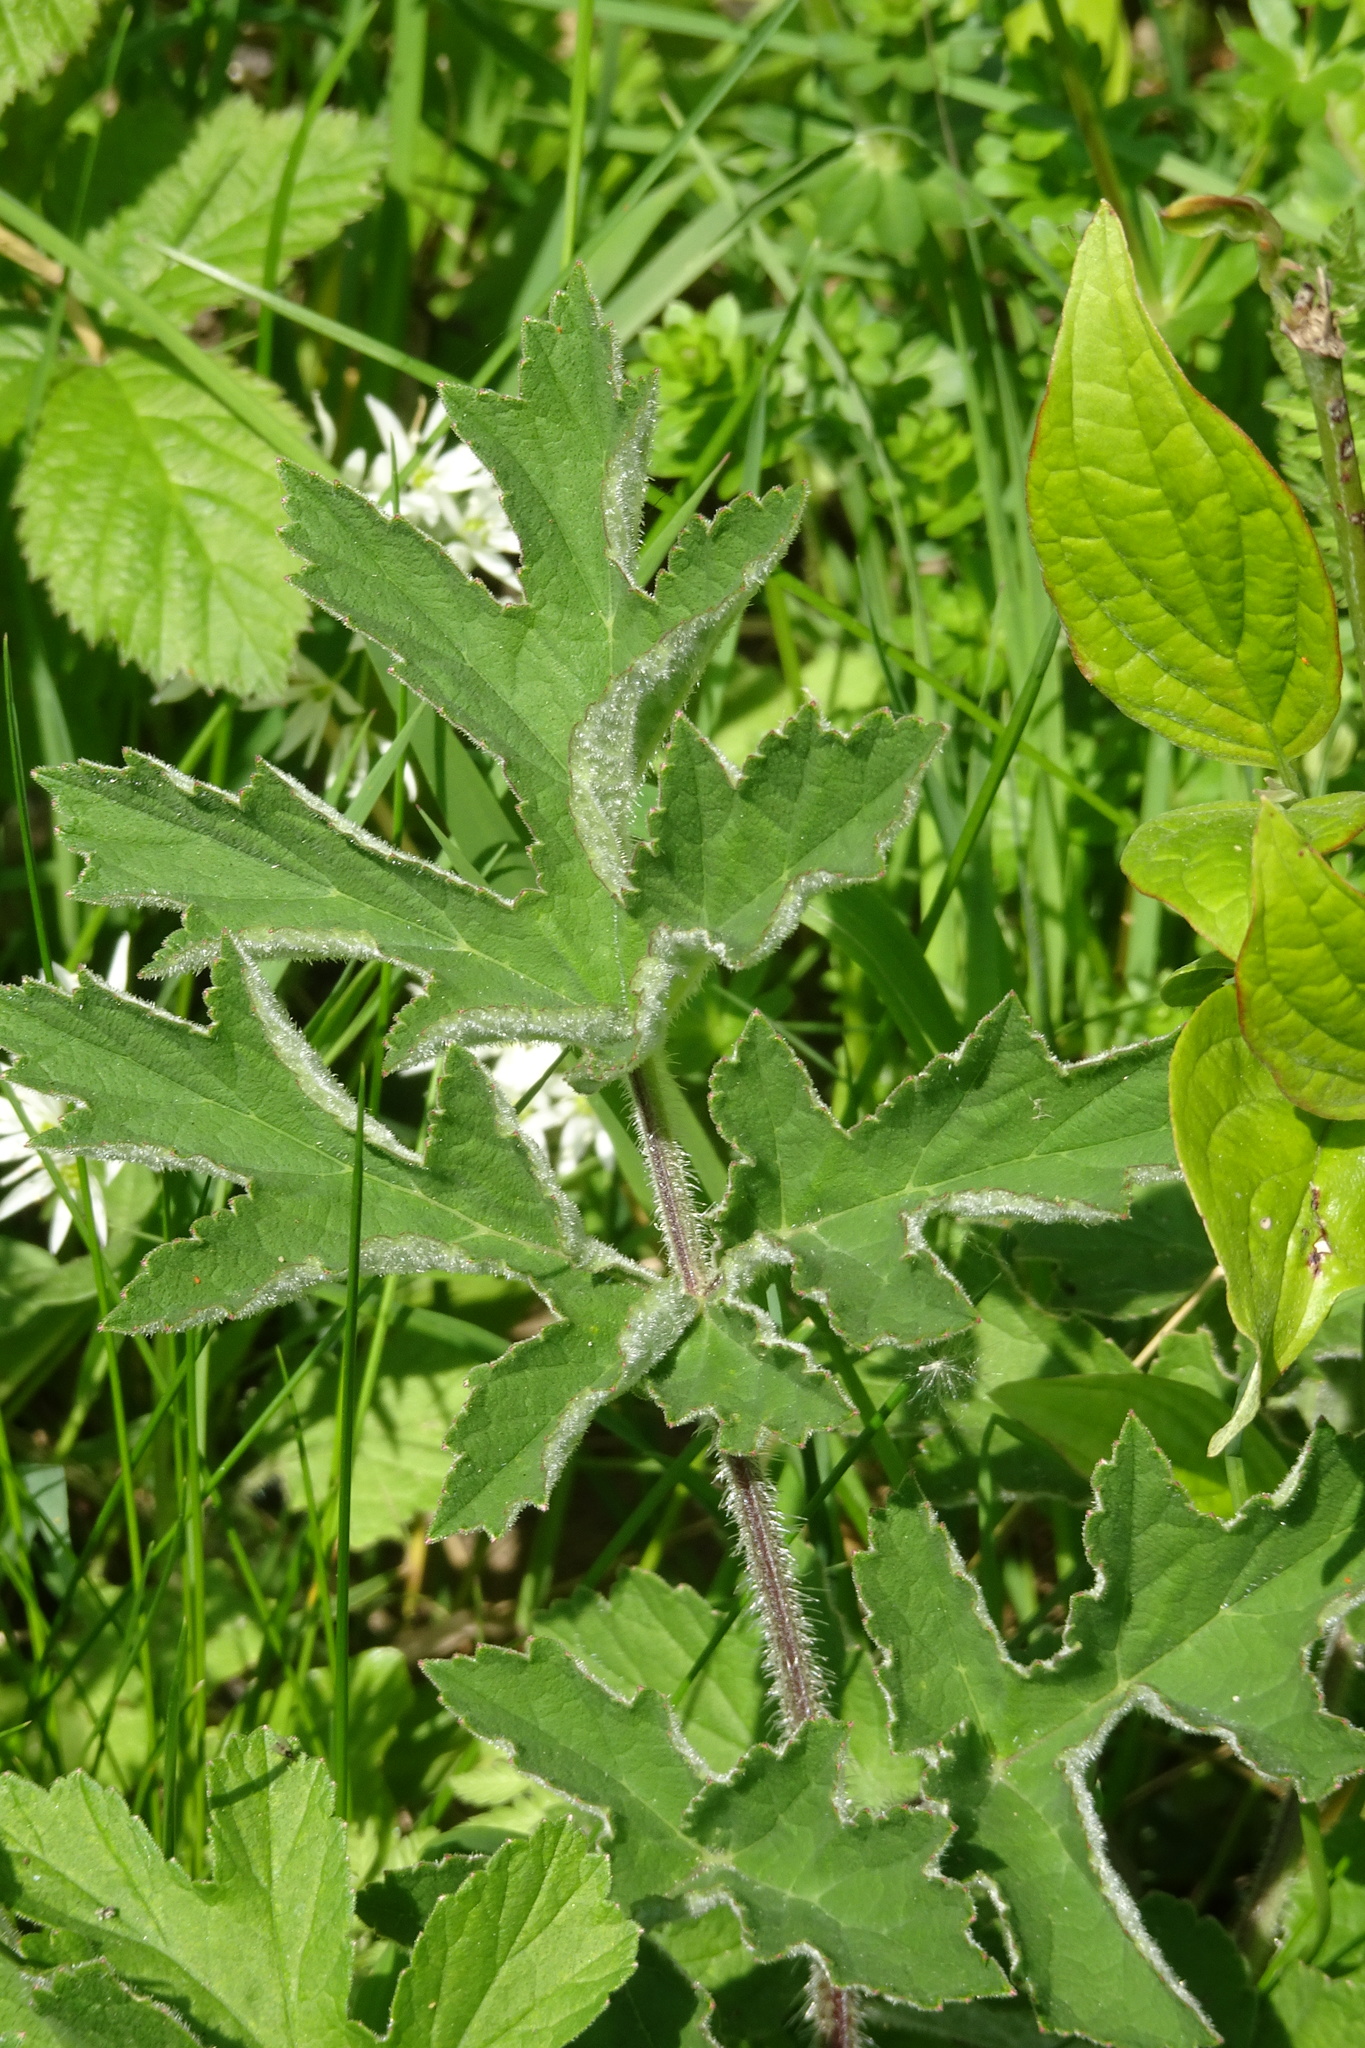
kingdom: Plantae
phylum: Tracheophyta
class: Magnoliopsida
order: Apiales
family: Apiaceae
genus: Heracleum
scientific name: Heracleum sphondylium
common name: Hogweed
